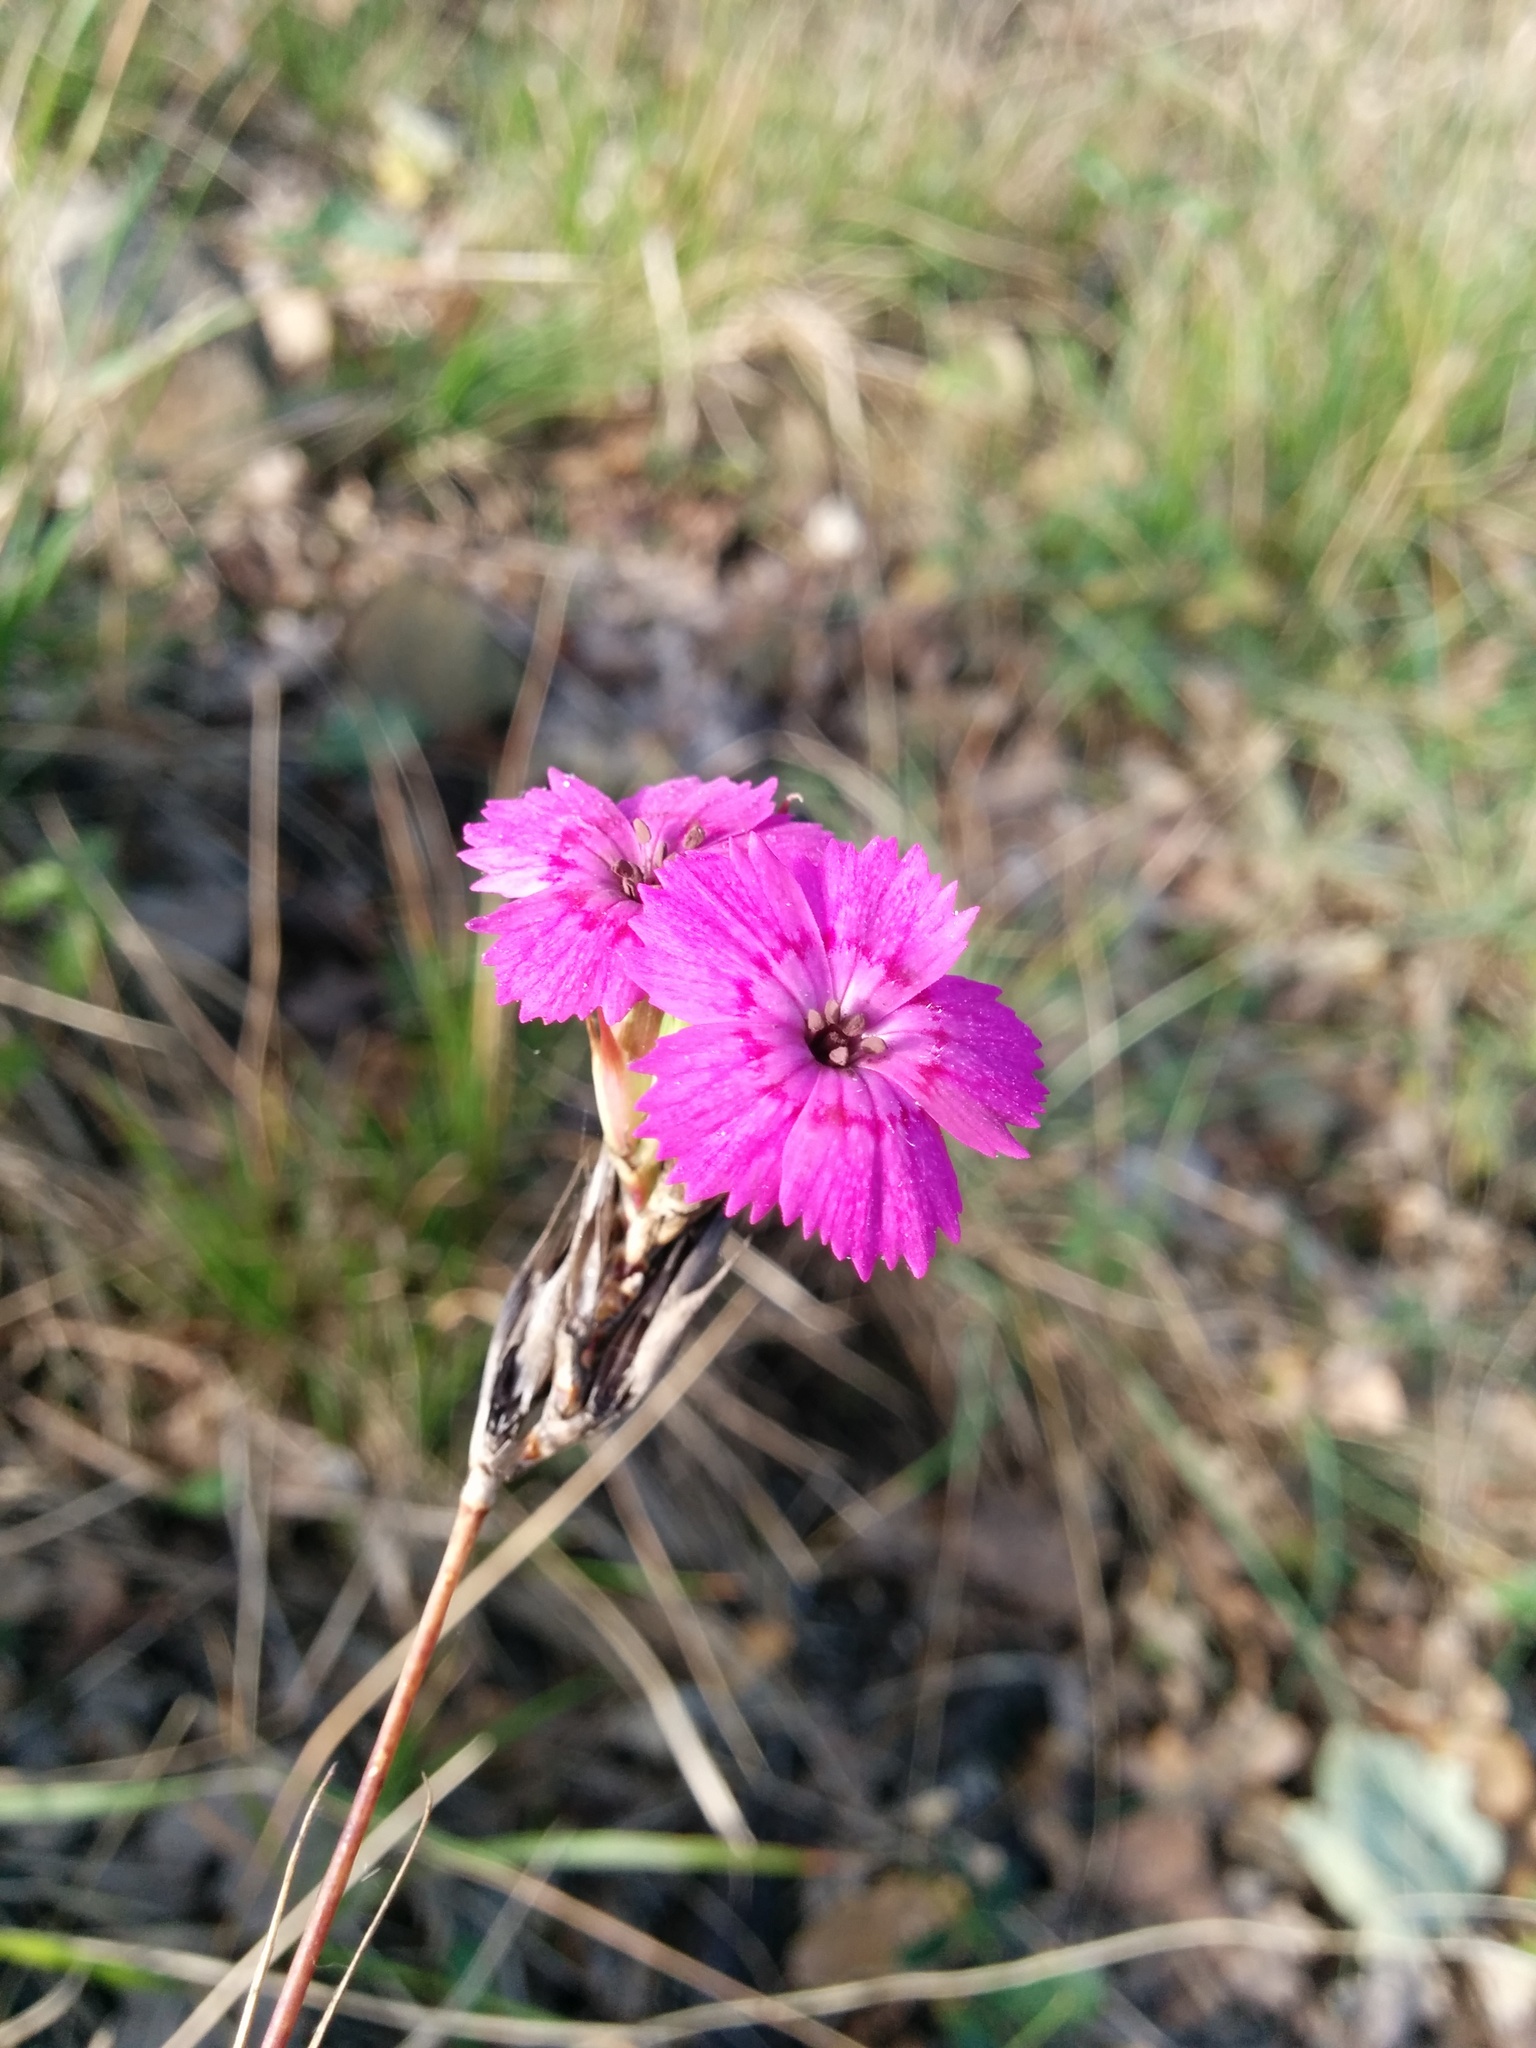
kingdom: Plantae
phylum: Tracheophyta
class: Magnoliopsida
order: Caryophyllales
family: Caryophyllaceae
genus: Dianthus
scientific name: Dianthus seguieri
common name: Ragged pink
